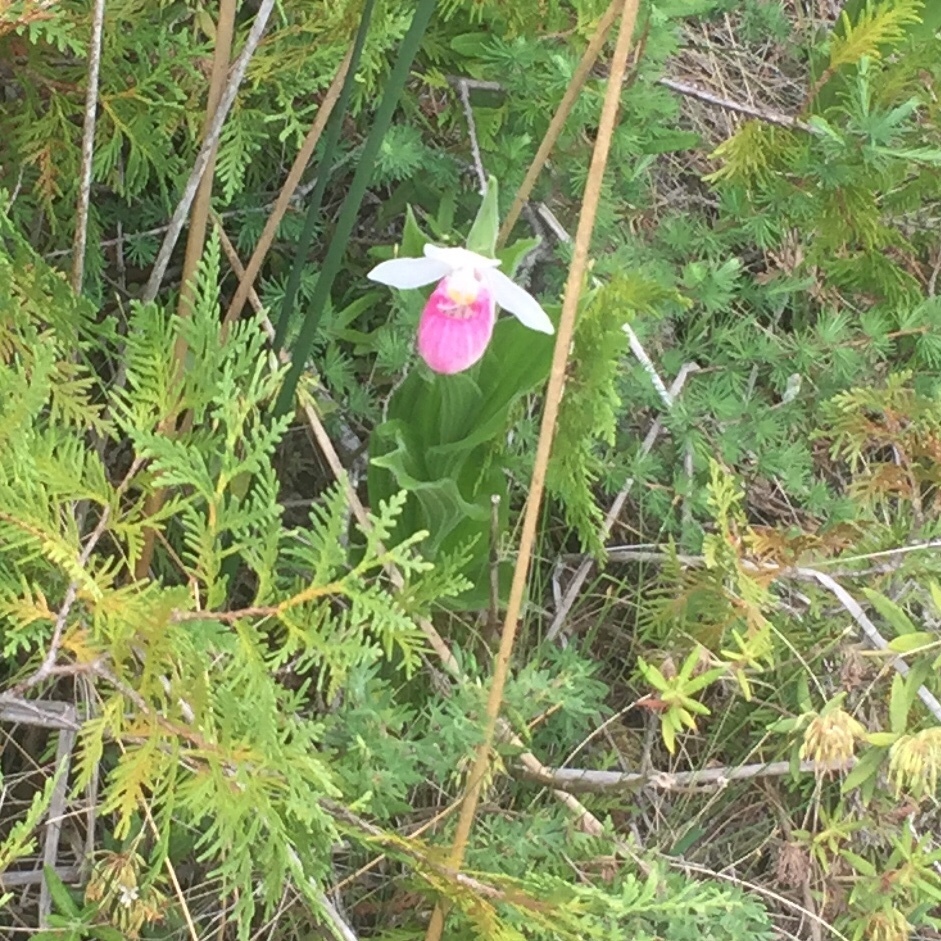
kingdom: Plantae
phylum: Tracheophyta
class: Liliopsida
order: Asparagales
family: Orchidaceae
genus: Cypripedium
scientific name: Cypripedium reginae
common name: Queen lady's-slipper
